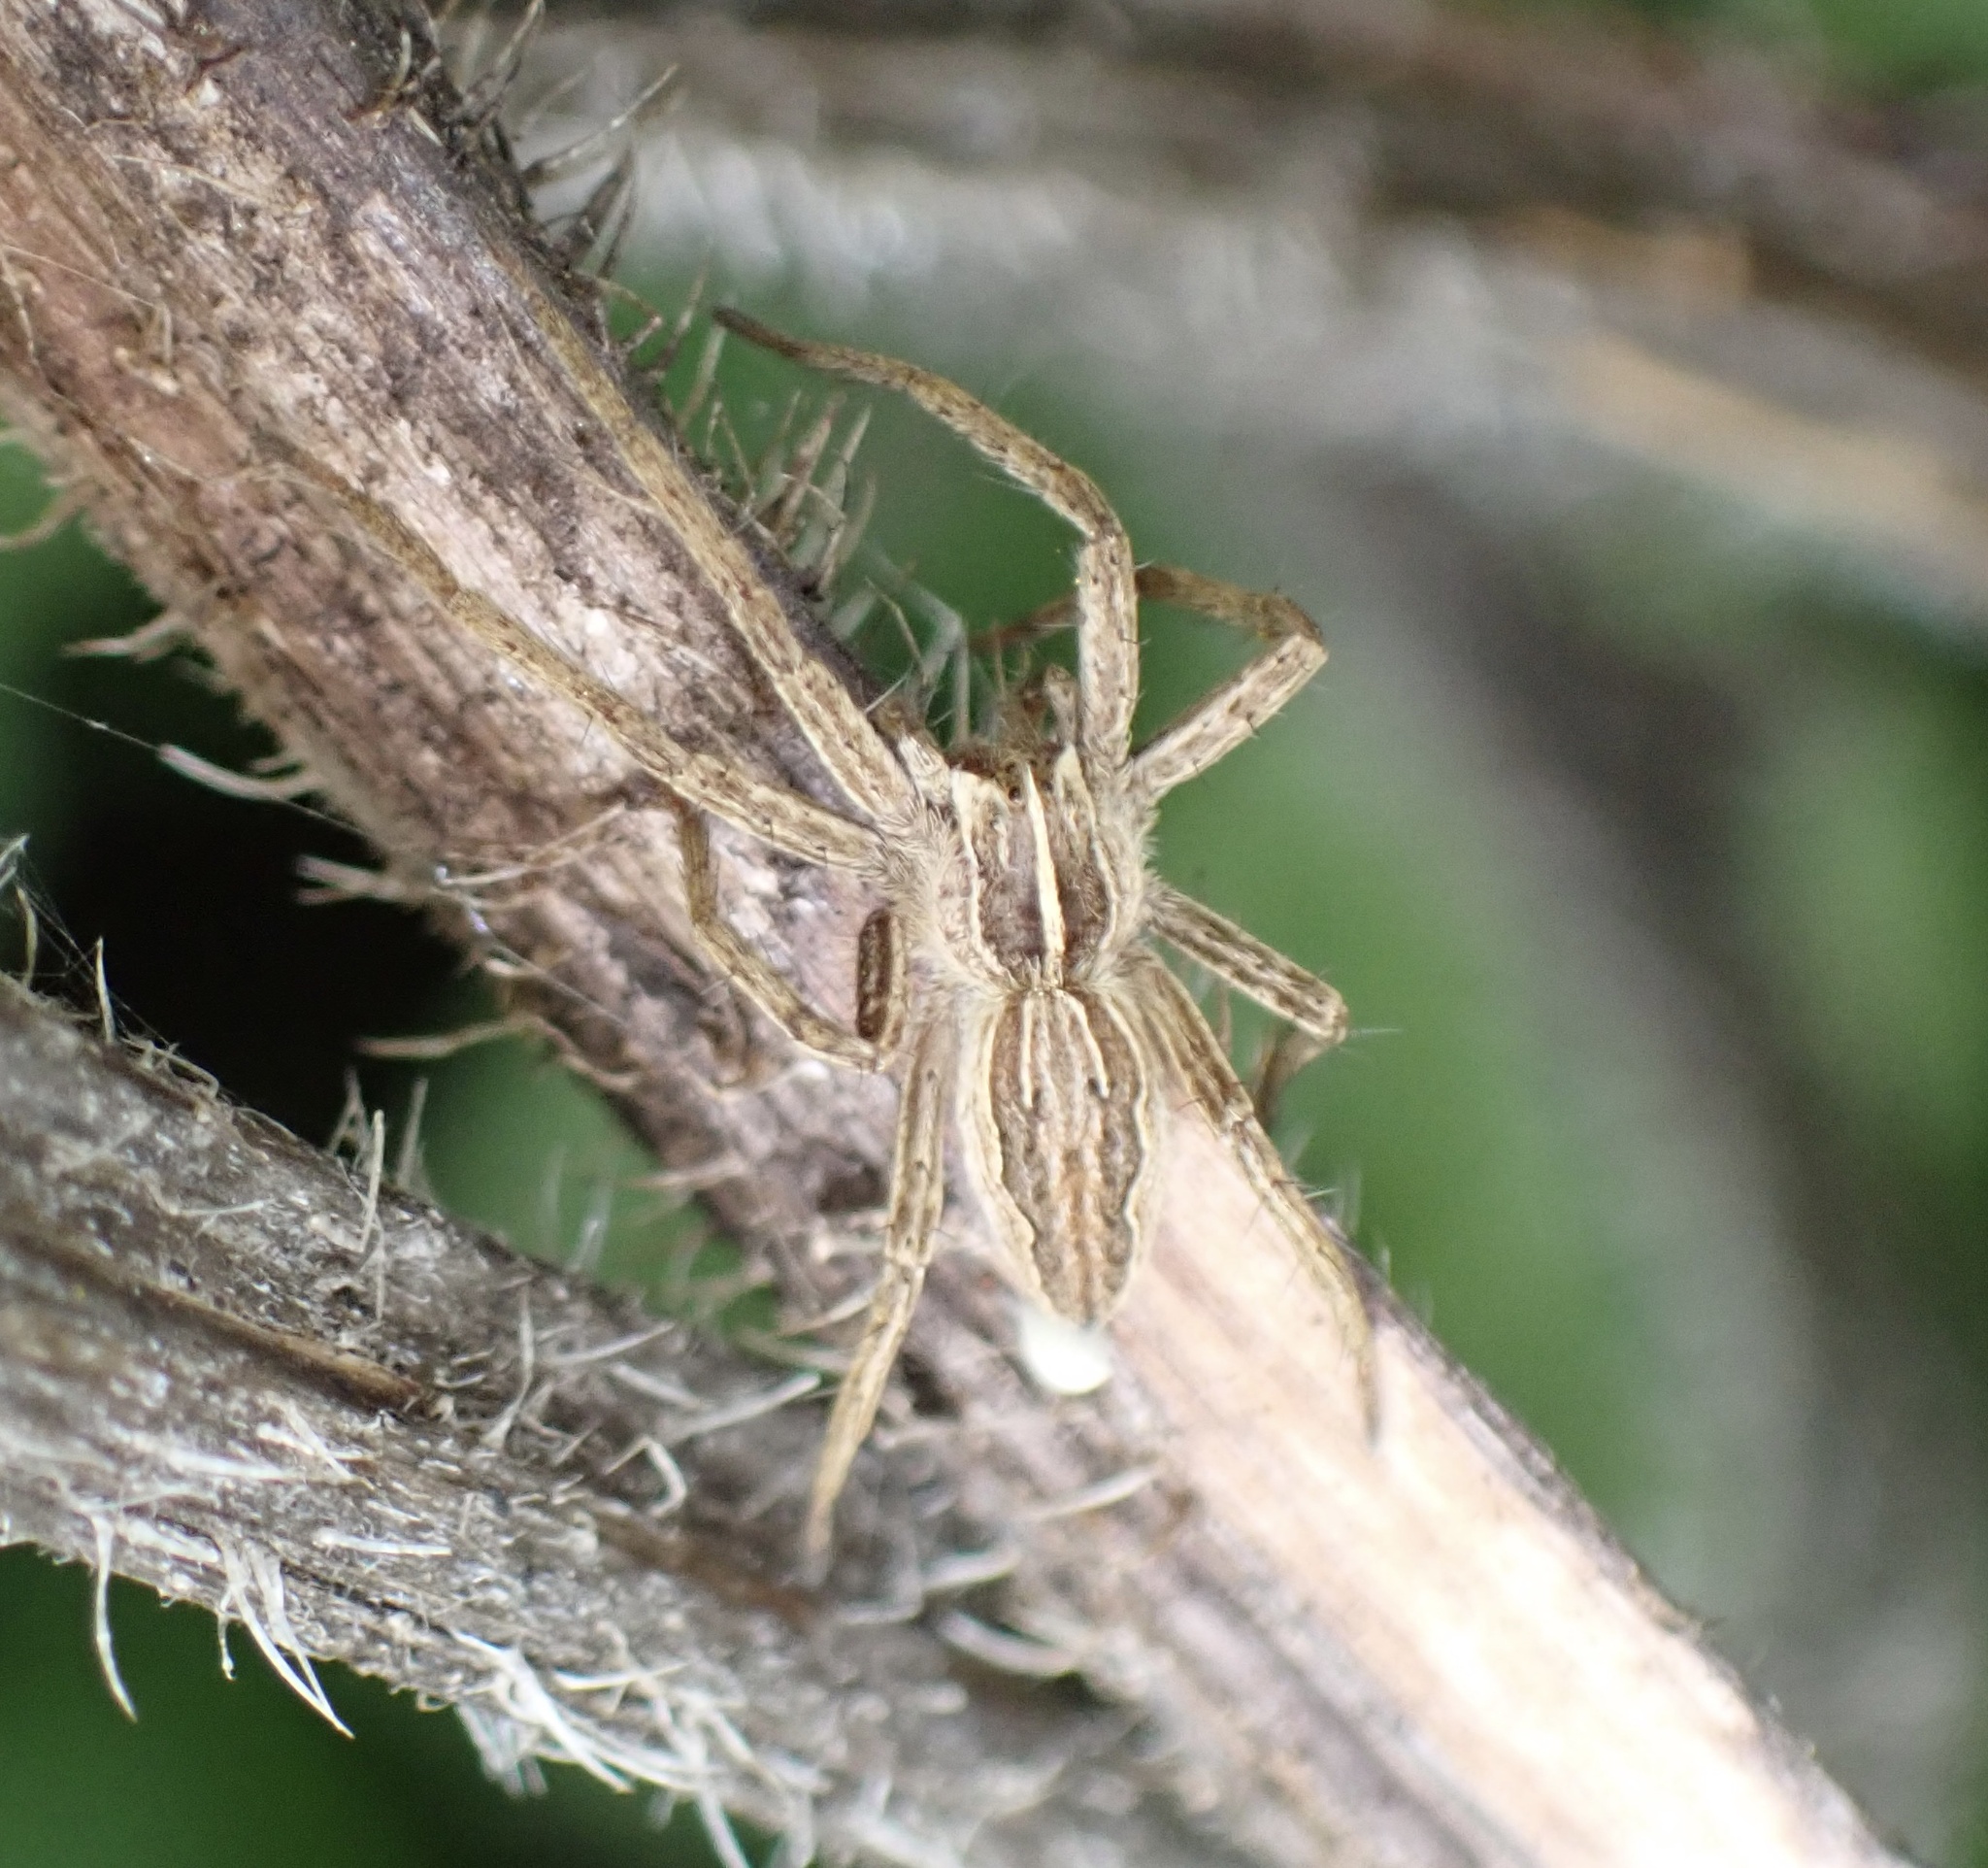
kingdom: Animalia
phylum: Arthropoda
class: Arachnida
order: Araneae
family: Pisauridae
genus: Pisaura
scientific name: Pisaura mirabilis
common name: Tent spider
